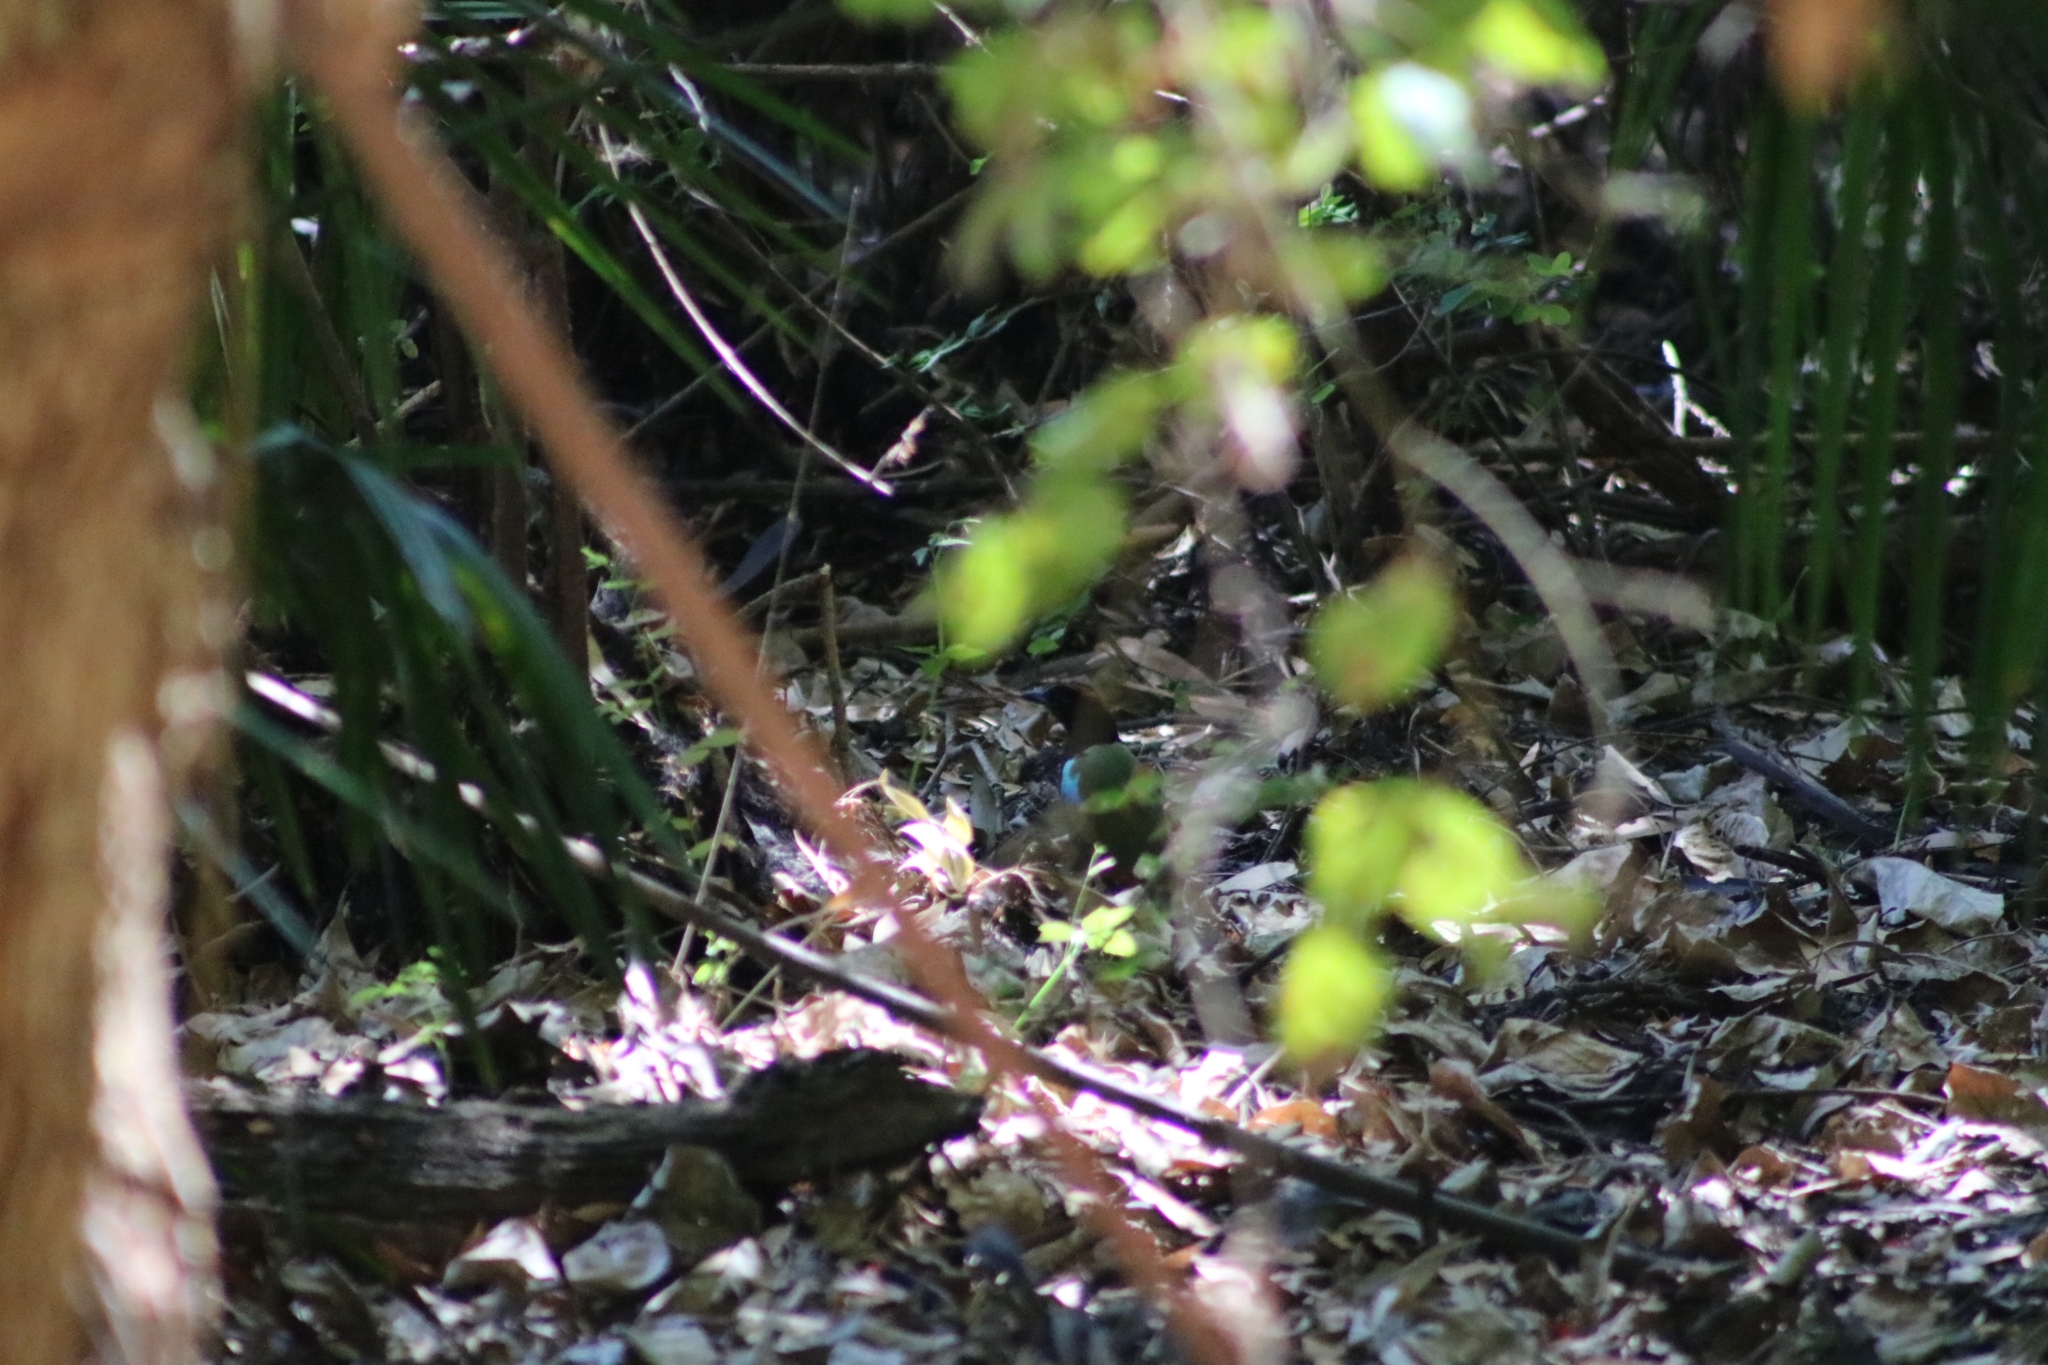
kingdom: Animalia
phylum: Chordata
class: Aves
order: Passeriformes
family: Pittidae
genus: Pitta
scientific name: Pitta iris
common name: Rainbow pitta
